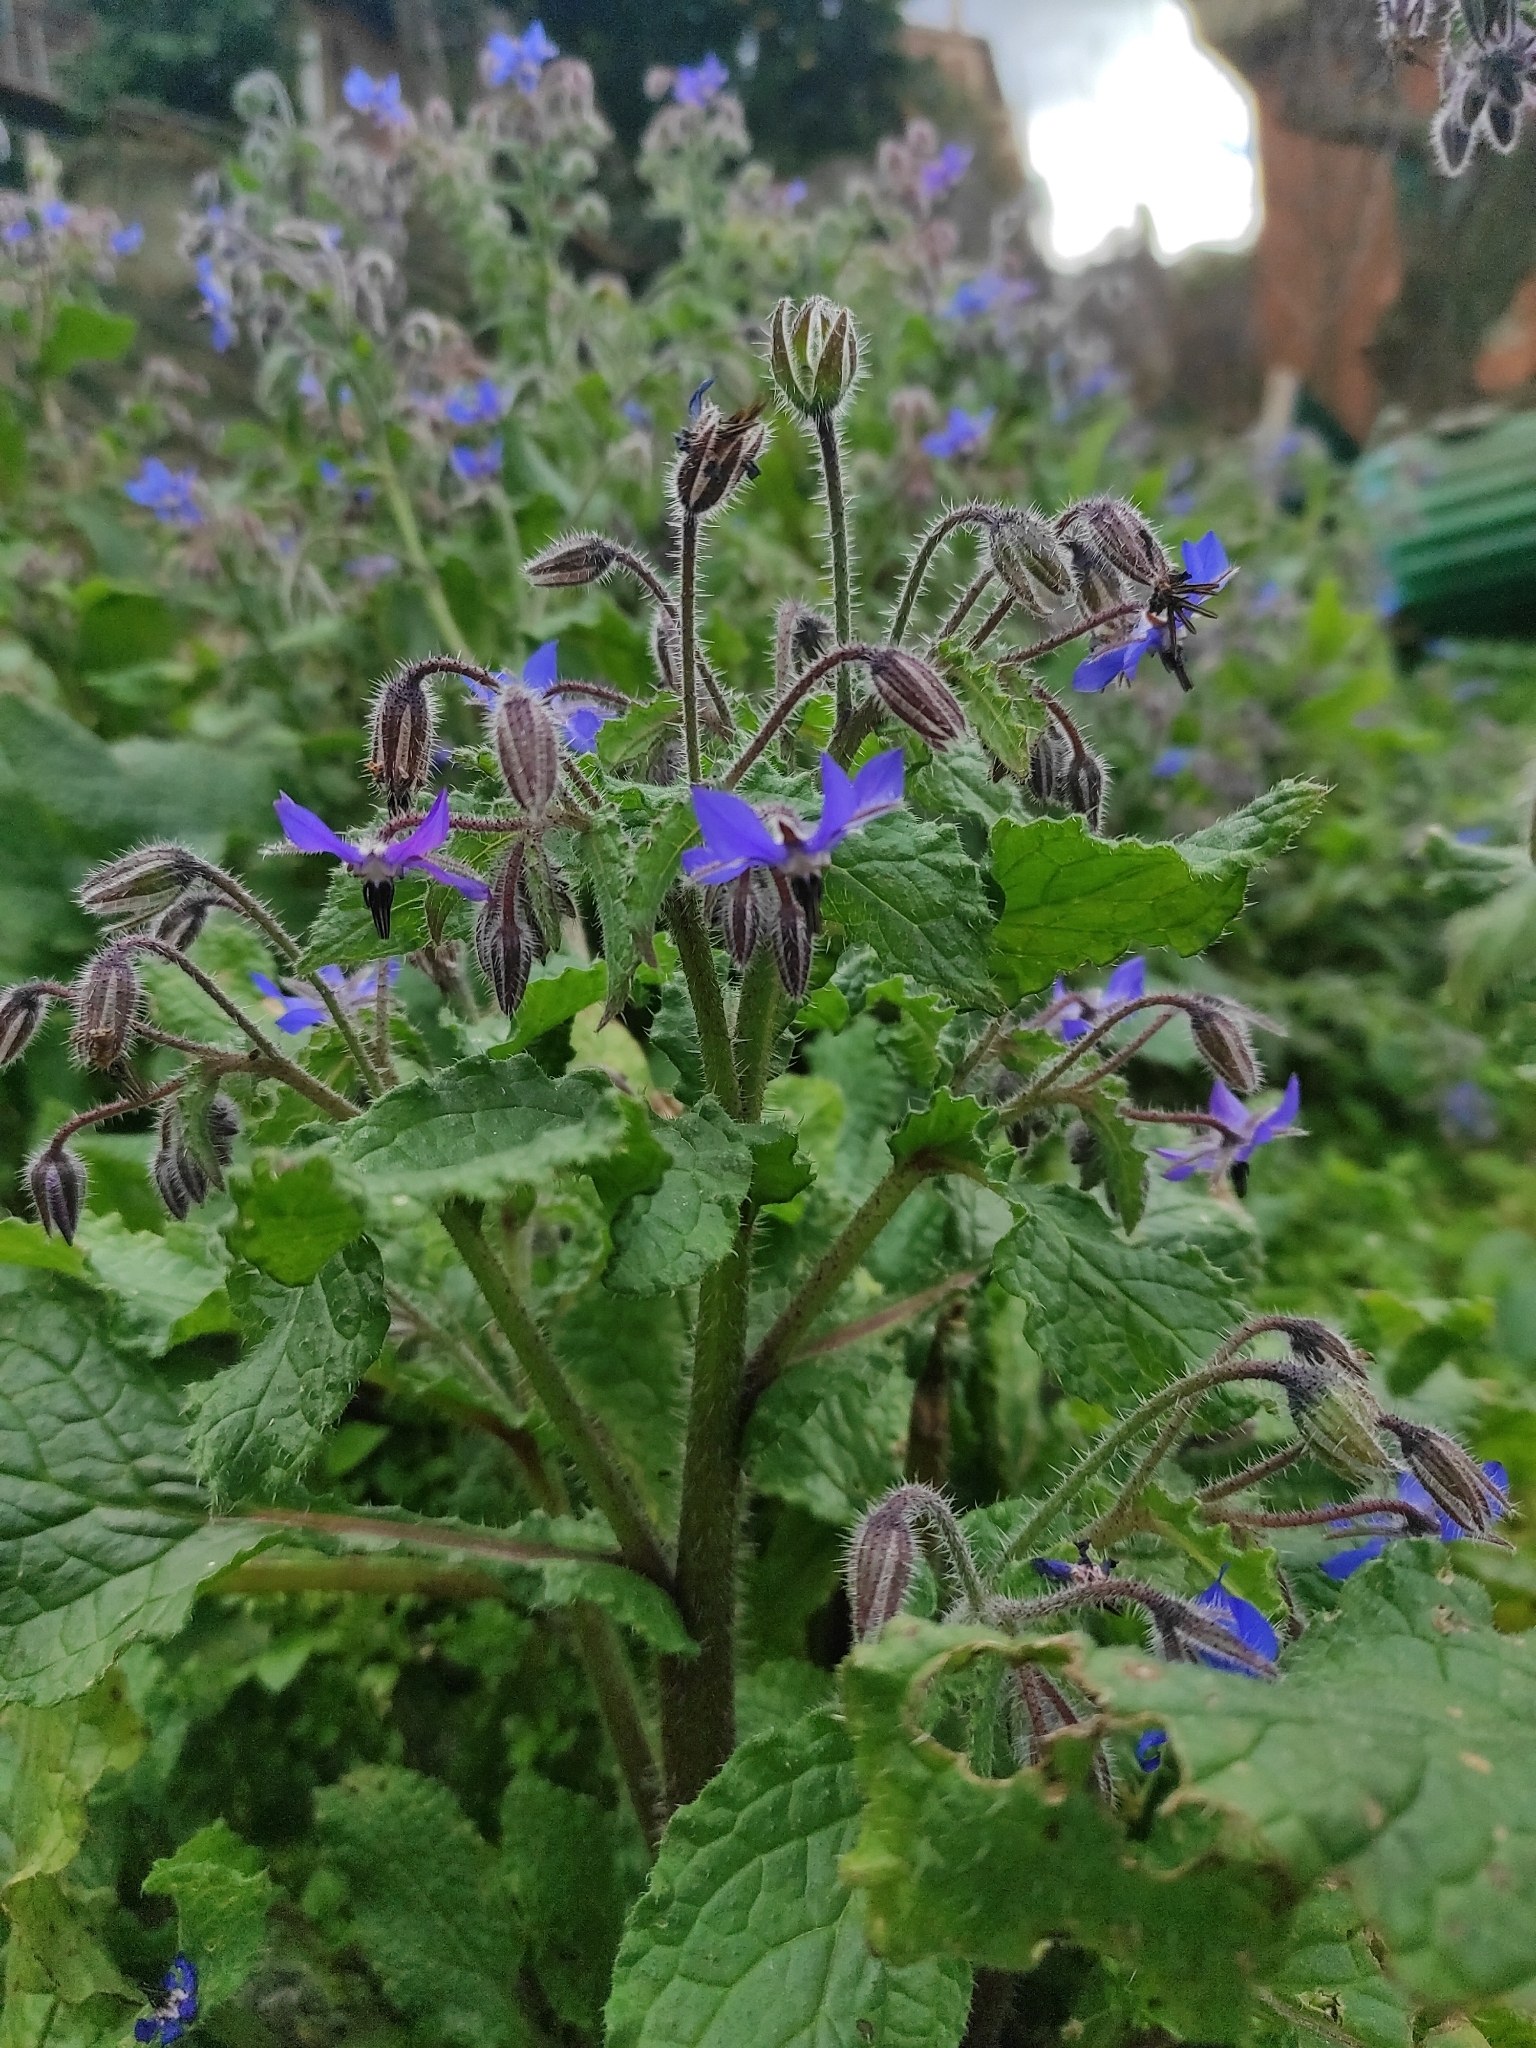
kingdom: Plantae
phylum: Tracheophyta
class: Magnoliopsida
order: Boraginales
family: Boraginaceae
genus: Borago
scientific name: Borago officinalis
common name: Borage
